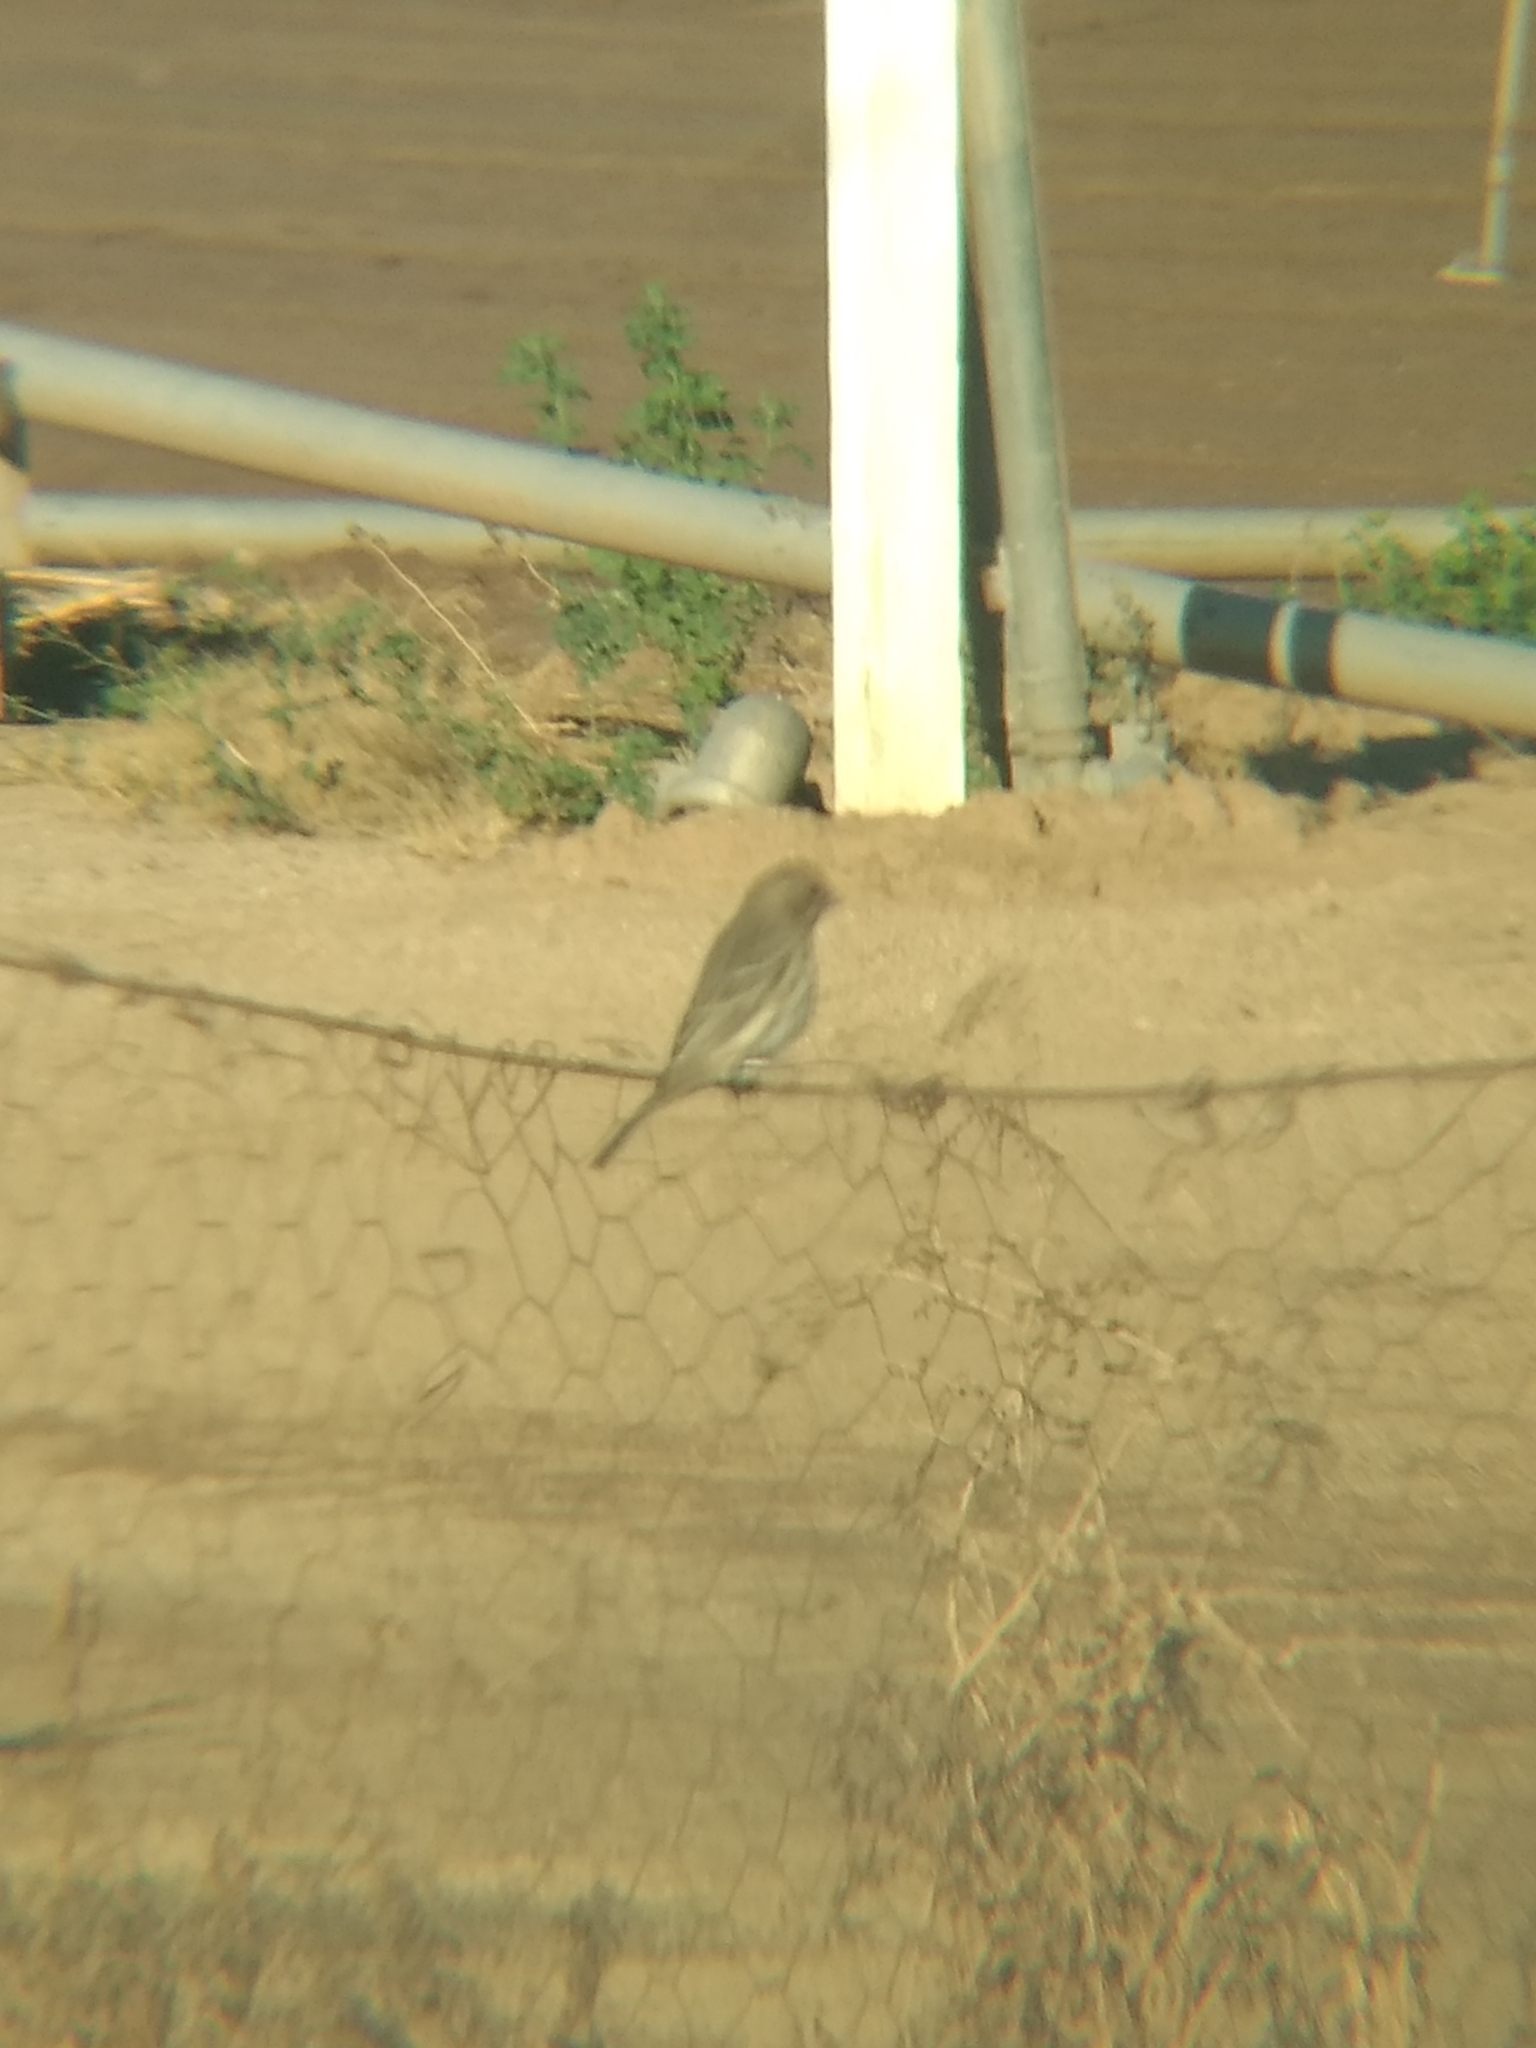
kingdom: Animalia
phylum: Chordata
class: Aves
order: Passeriformes
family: Fringillidae
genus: Haemorhous
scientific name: Haemorhous mexicanus
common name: House finch
